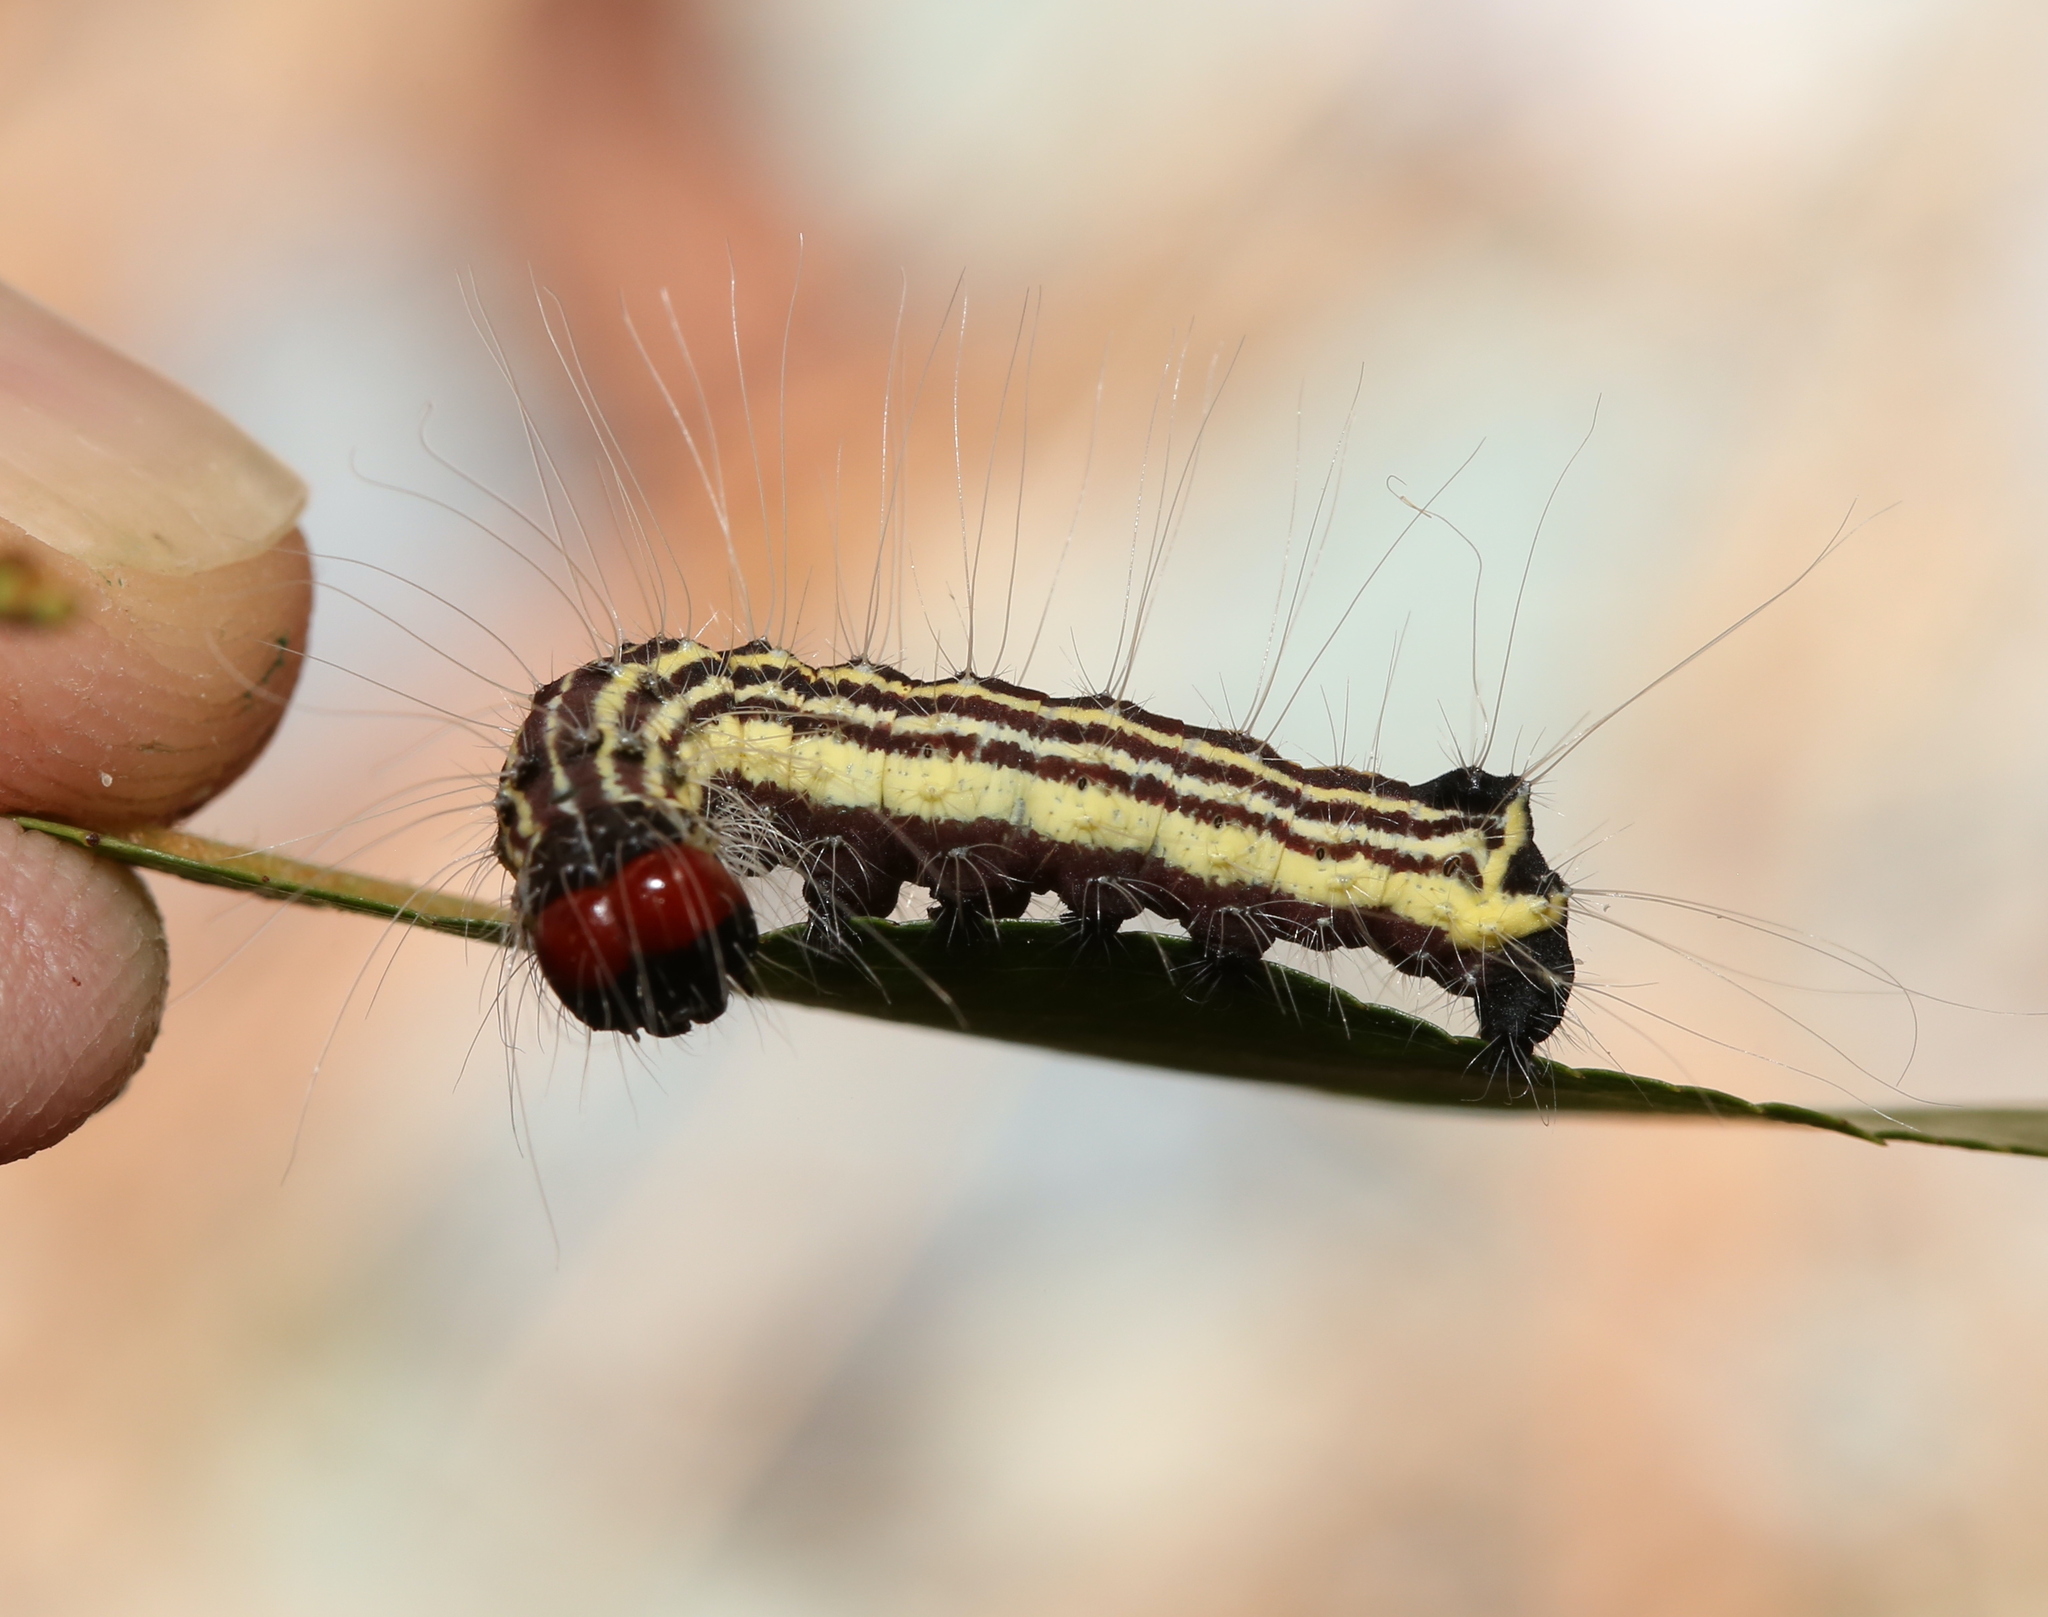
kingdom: Animalia
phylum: Arthropoda
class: Insecta
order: Lepidoptera
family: Noctuidae
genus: Acronicta
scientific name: Acronicta radcliffei
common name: Radcliffe's dagger
